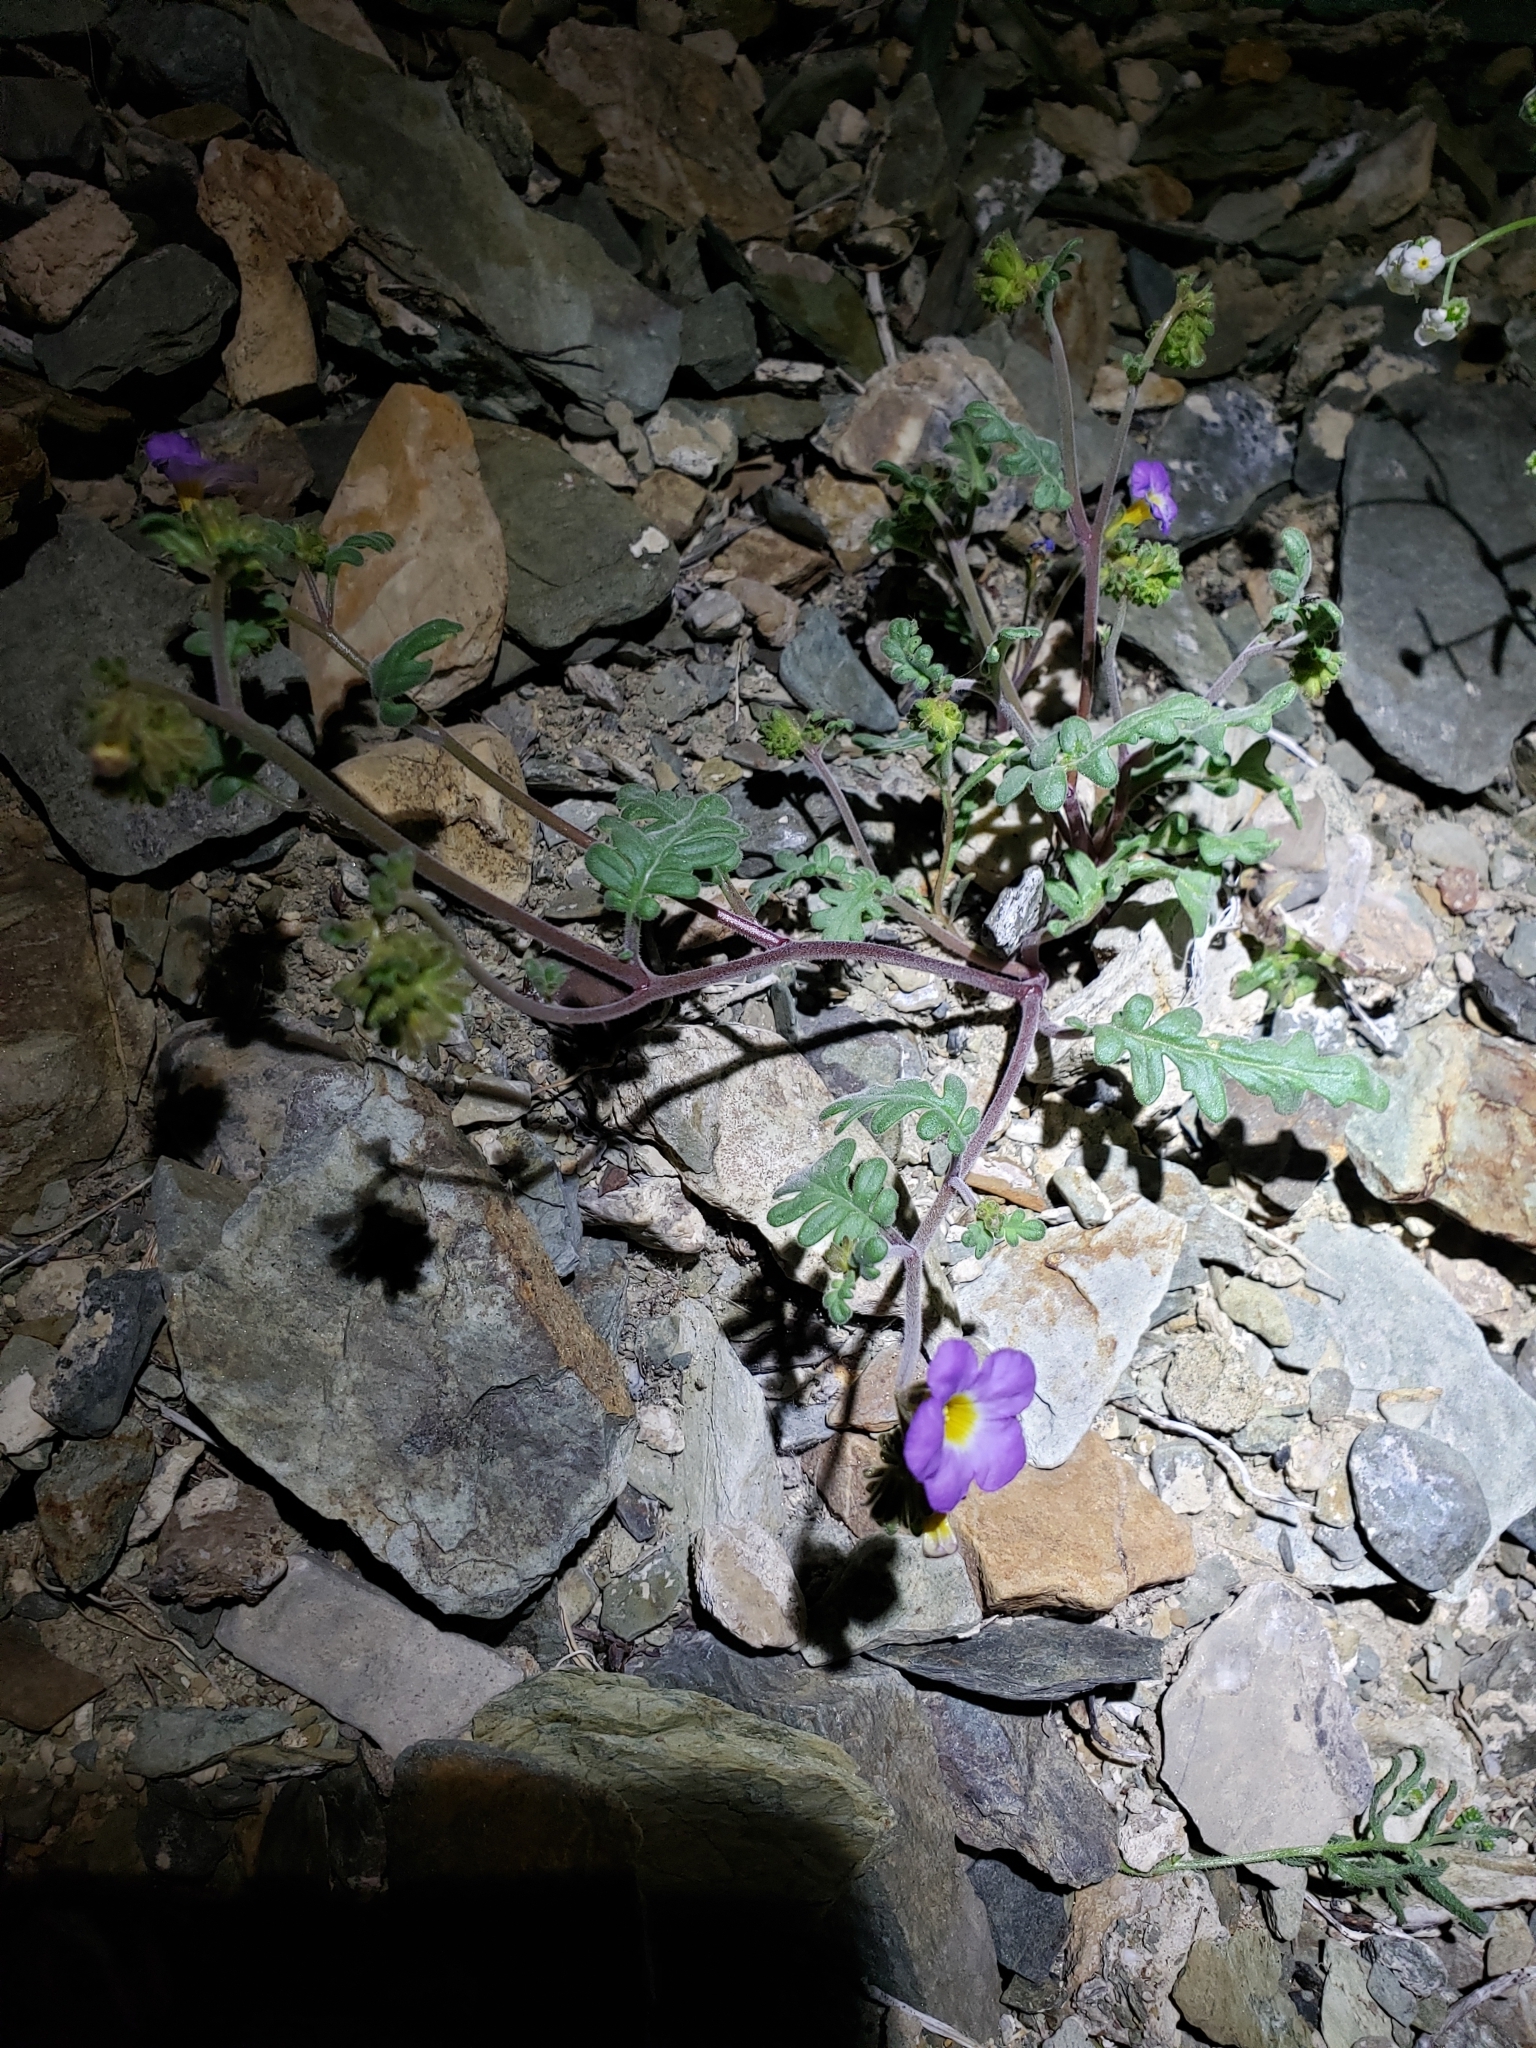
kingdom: Plantae
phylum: Tracheophyta
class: Magnoliopsida
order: Boraginales
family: Hydrophyllaceae
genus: Phacelia
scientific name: Phacelia fremontii
